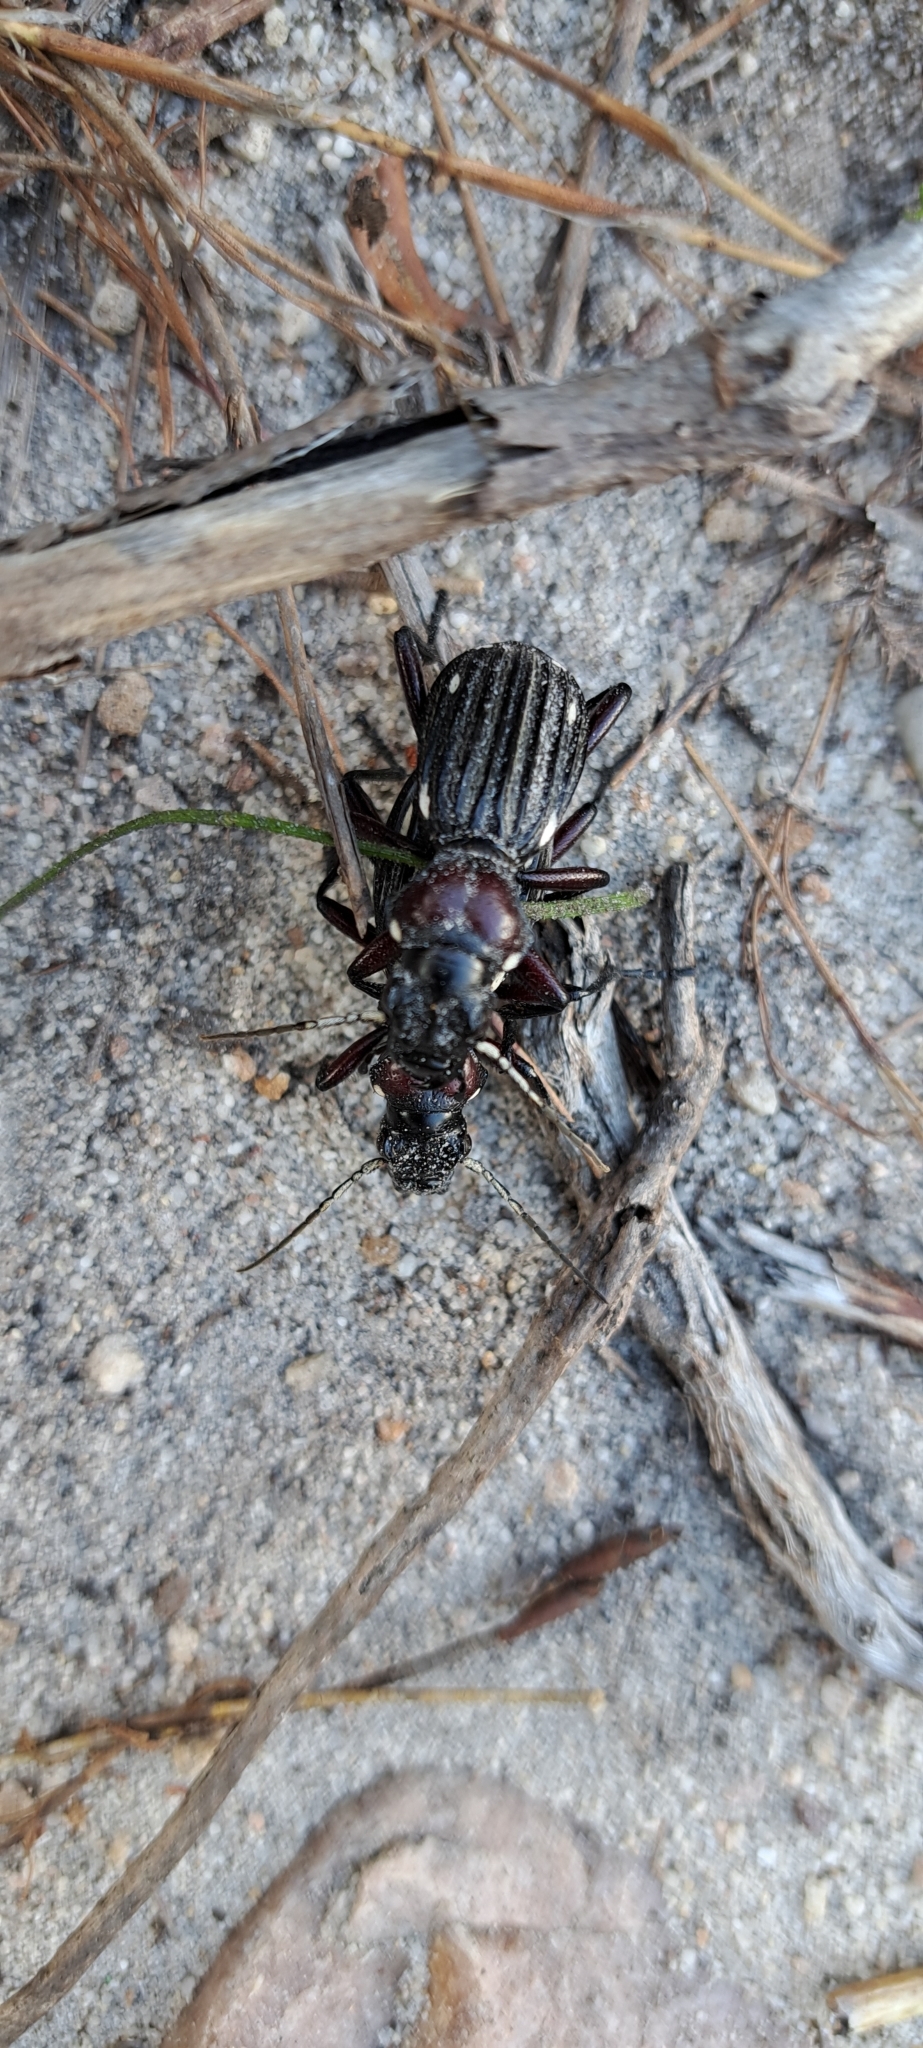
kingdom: Animalia
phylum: Arthropoda
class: Insecta
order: Coleoptera
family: Carabidae
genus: Anthia
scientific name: Anthia decemguttata
